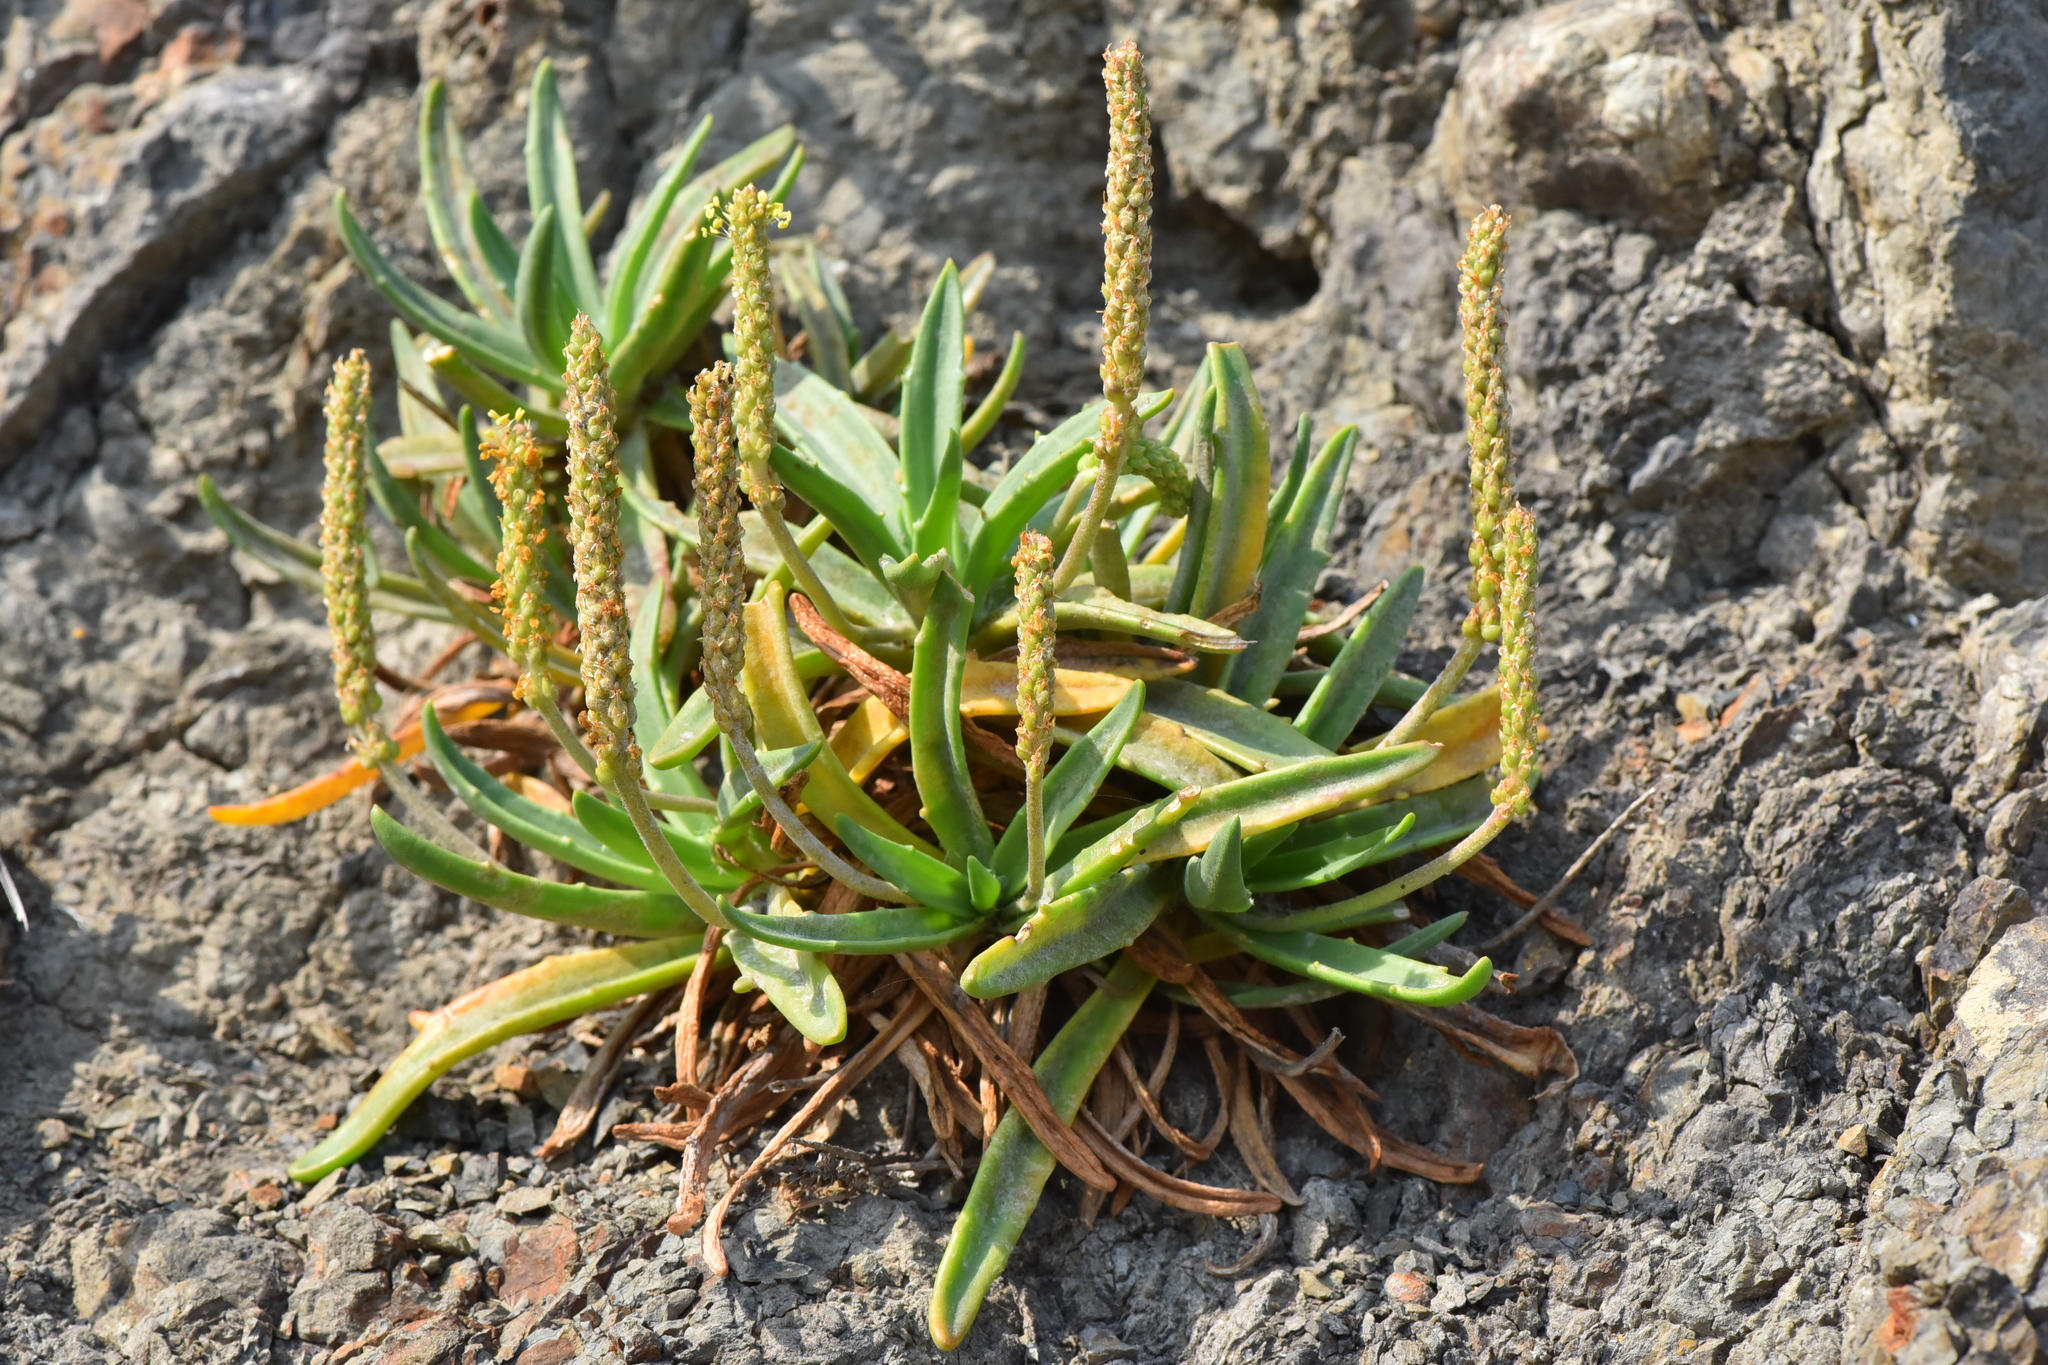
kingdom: Plantae
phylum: Tracheophyta
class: Magnoliopsida
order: Lamiales
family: Plantaginaceae
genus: Plantago
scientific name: Plantago maritima
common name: Sea plantain
